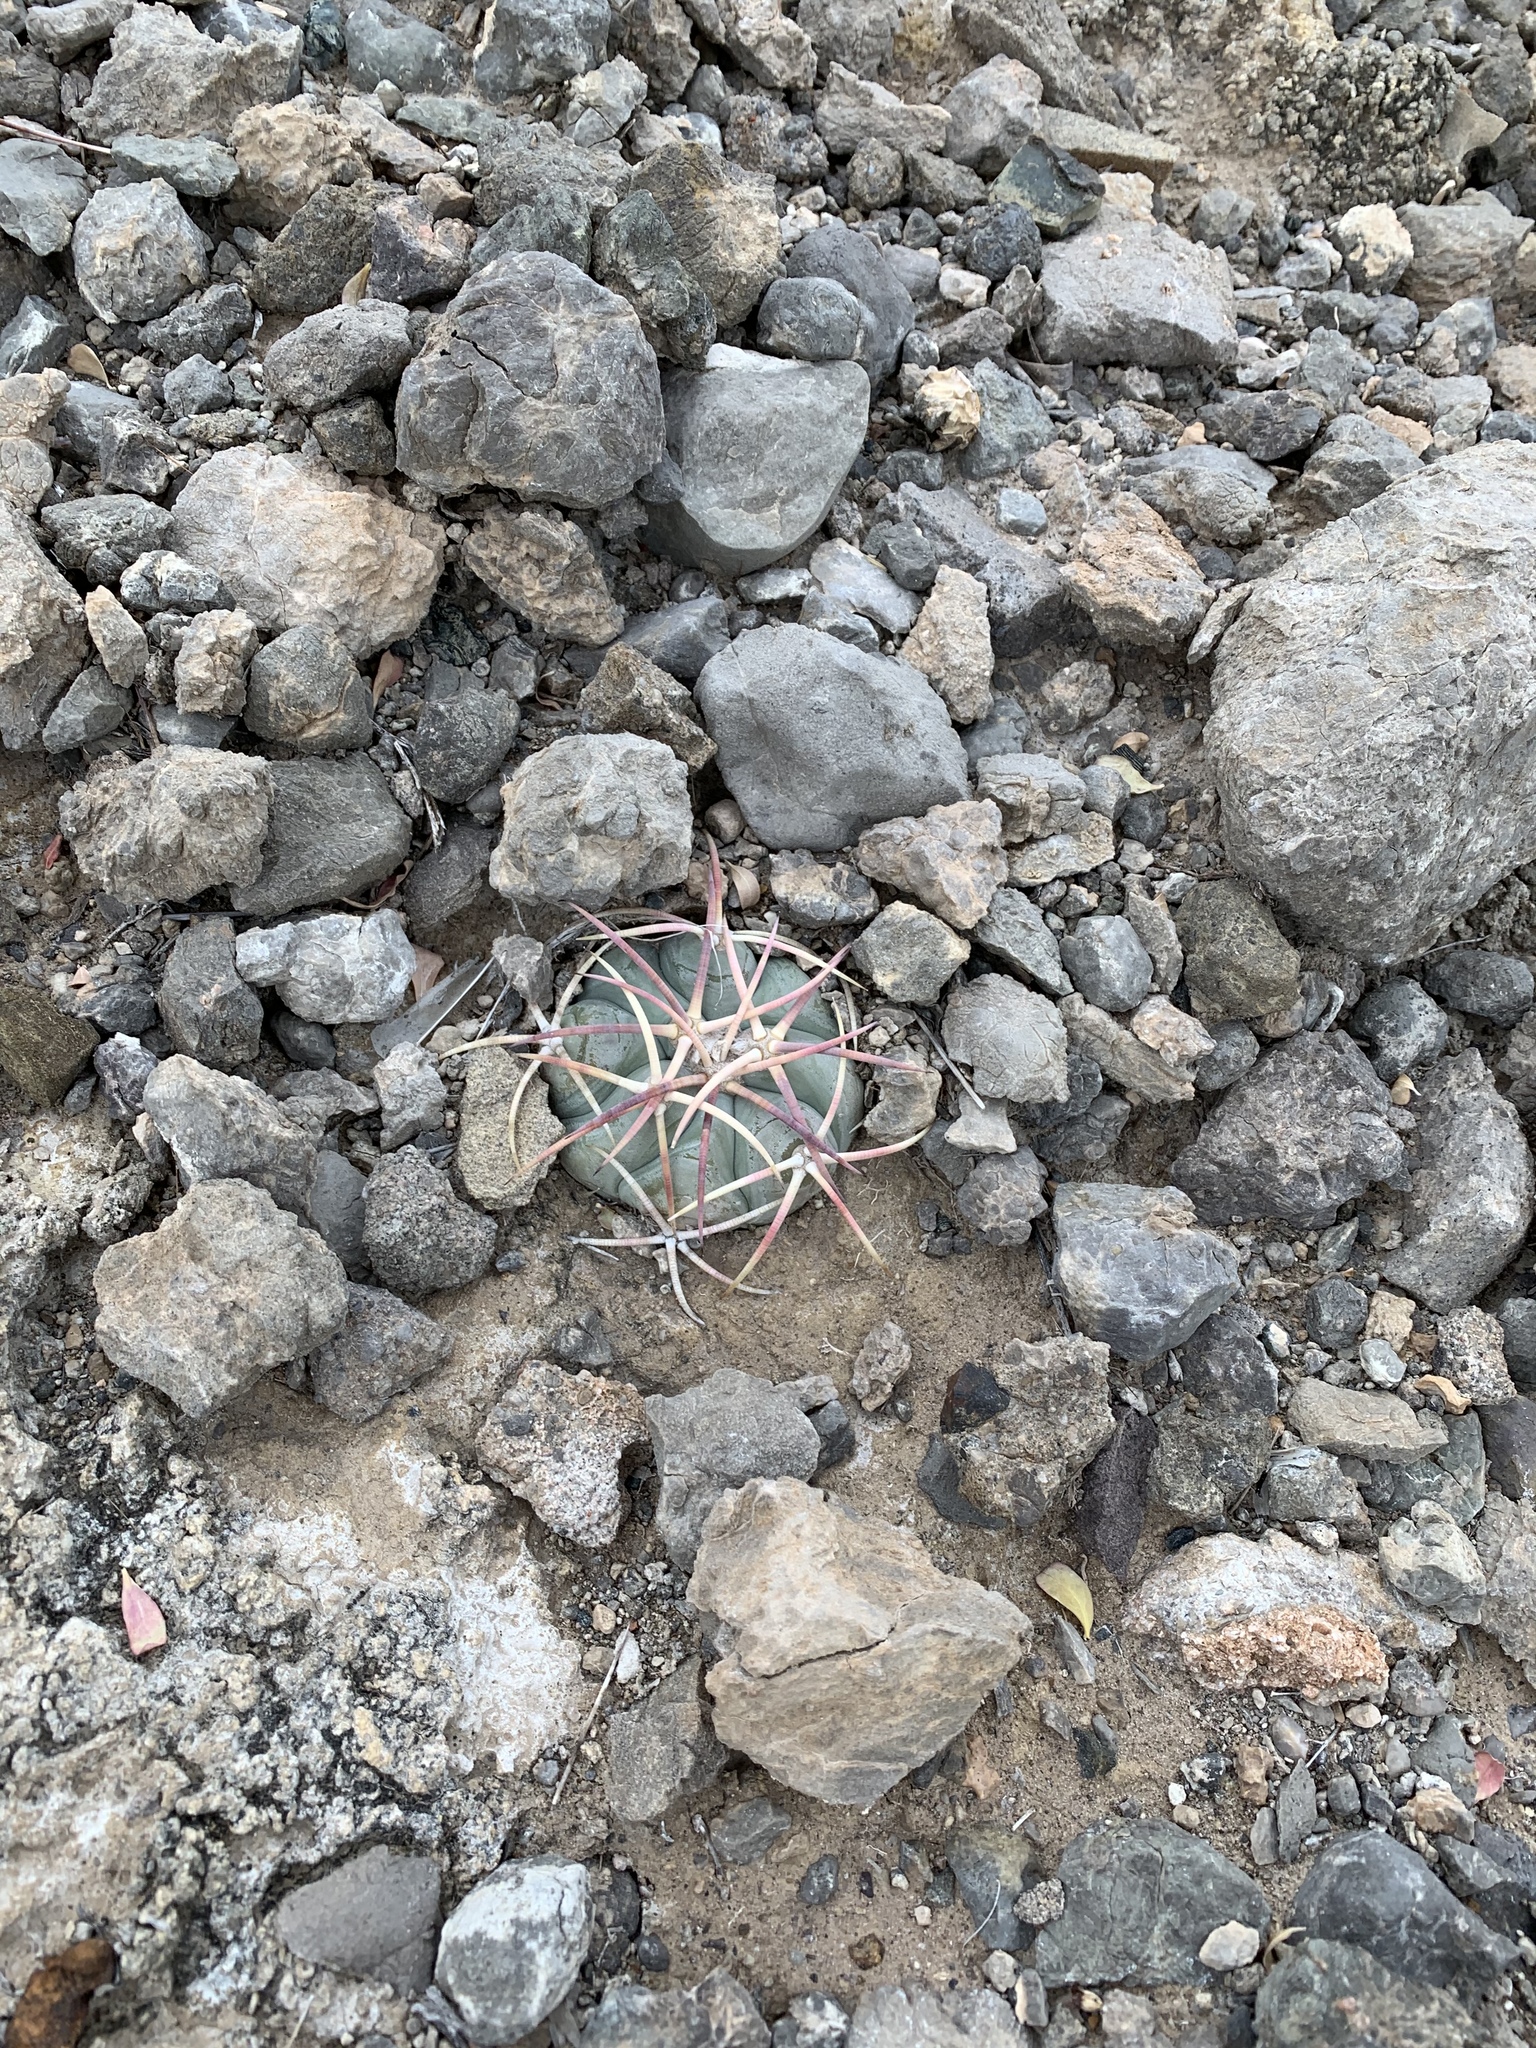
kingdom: Plantae
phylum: Tracheophyta
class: Magnoliopsida
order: Caryophyllales
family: Cactaceae
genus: Echinocactus
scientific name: Echinocactus horizonthalonius
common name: Devilshead
